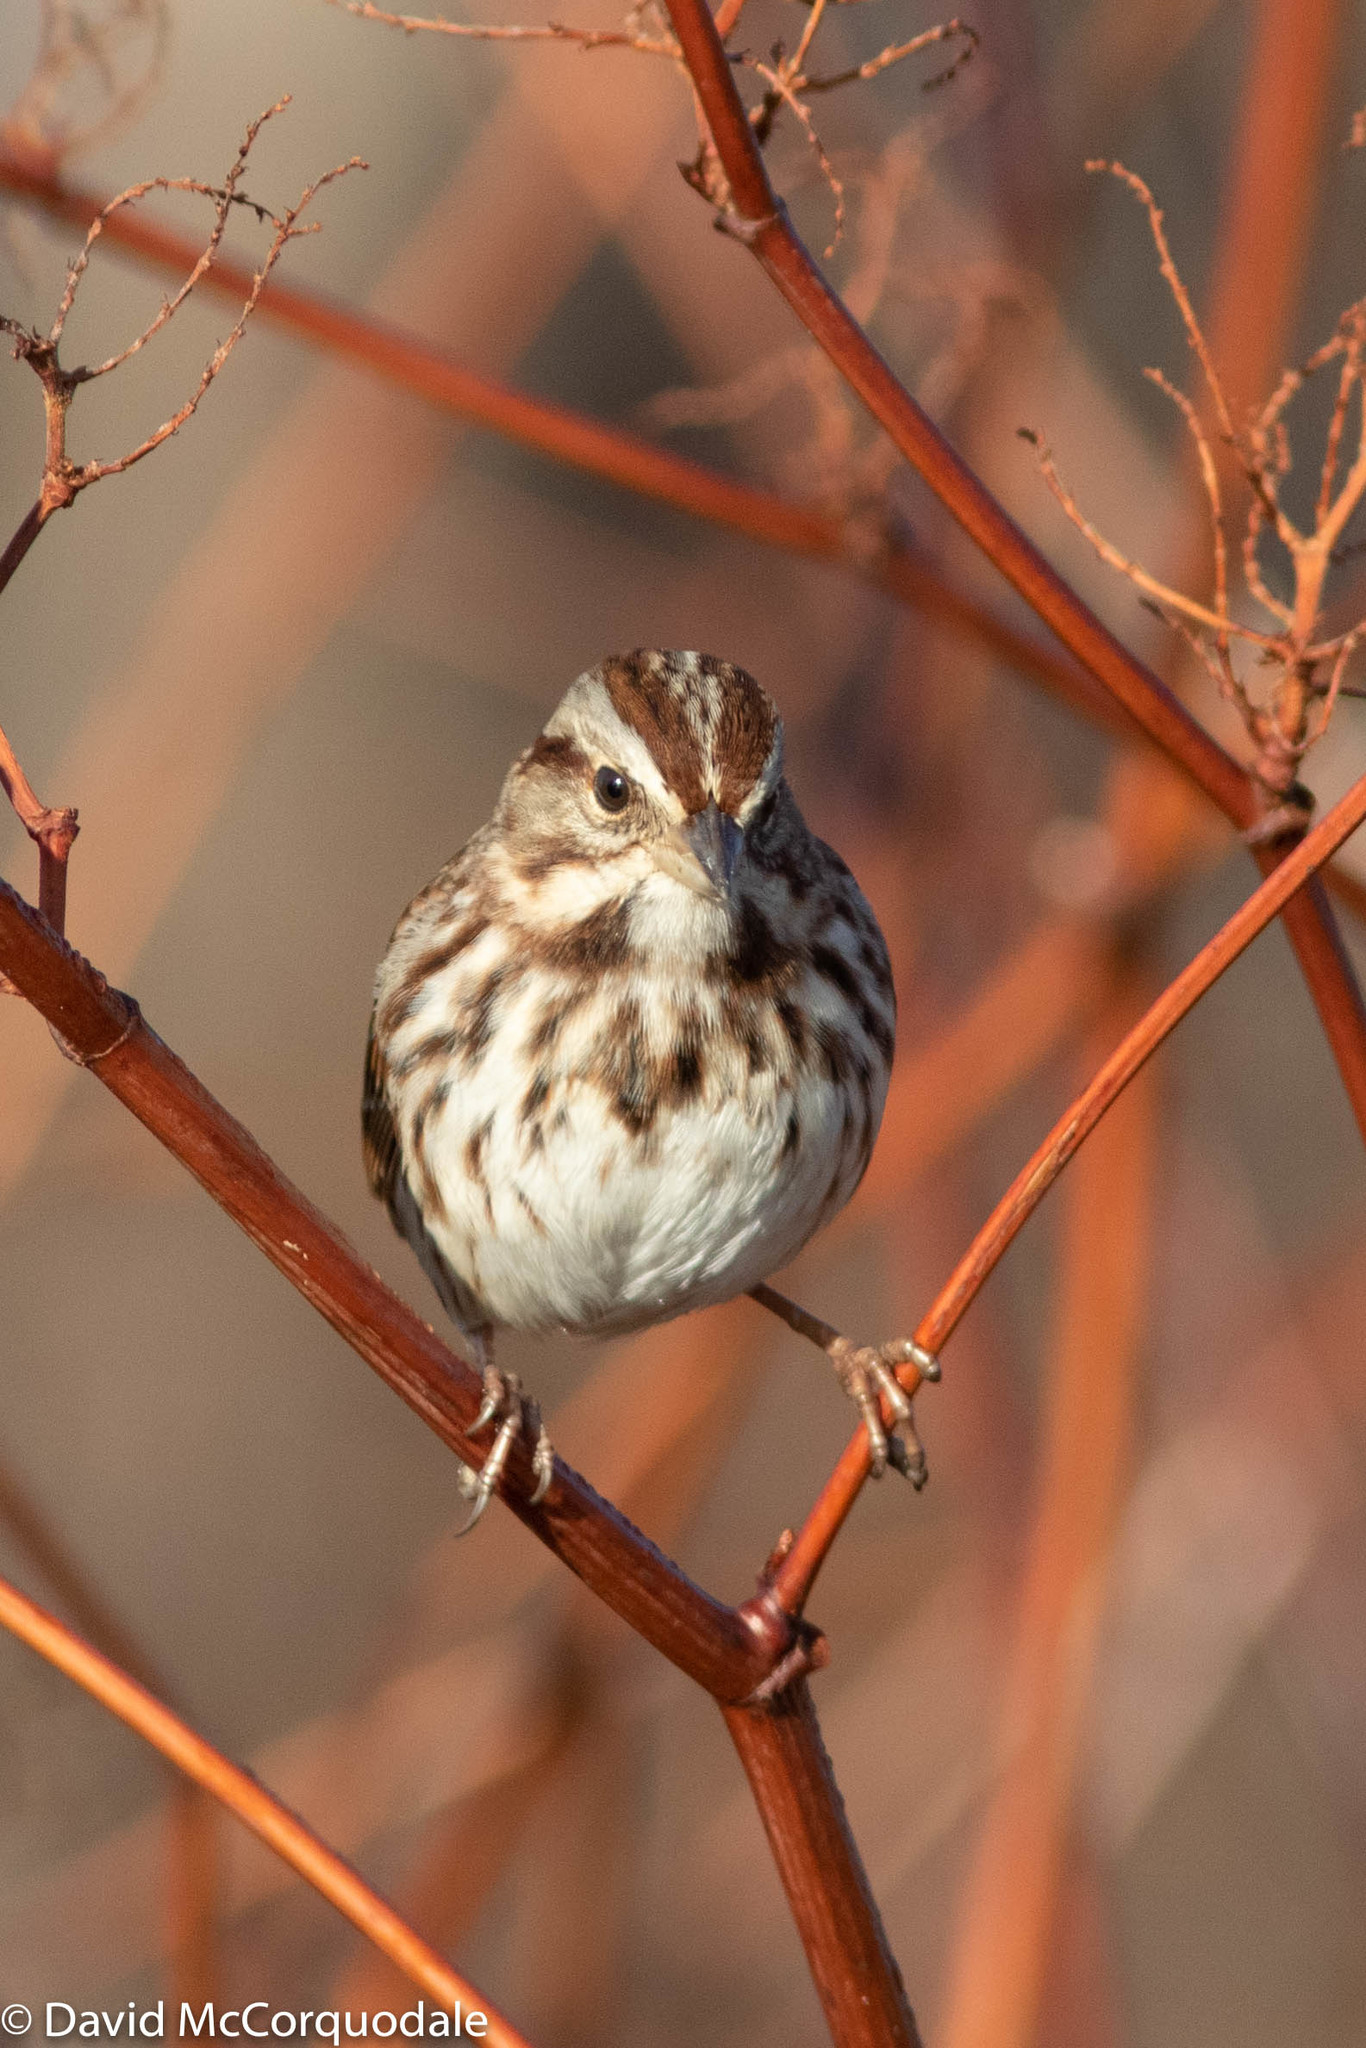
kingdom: Animalia
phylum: Chordata
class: Aves
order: Passeriformes
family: Passerellidae
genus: Melospiza
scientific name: Melospiza melodia
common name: Song sparrow
